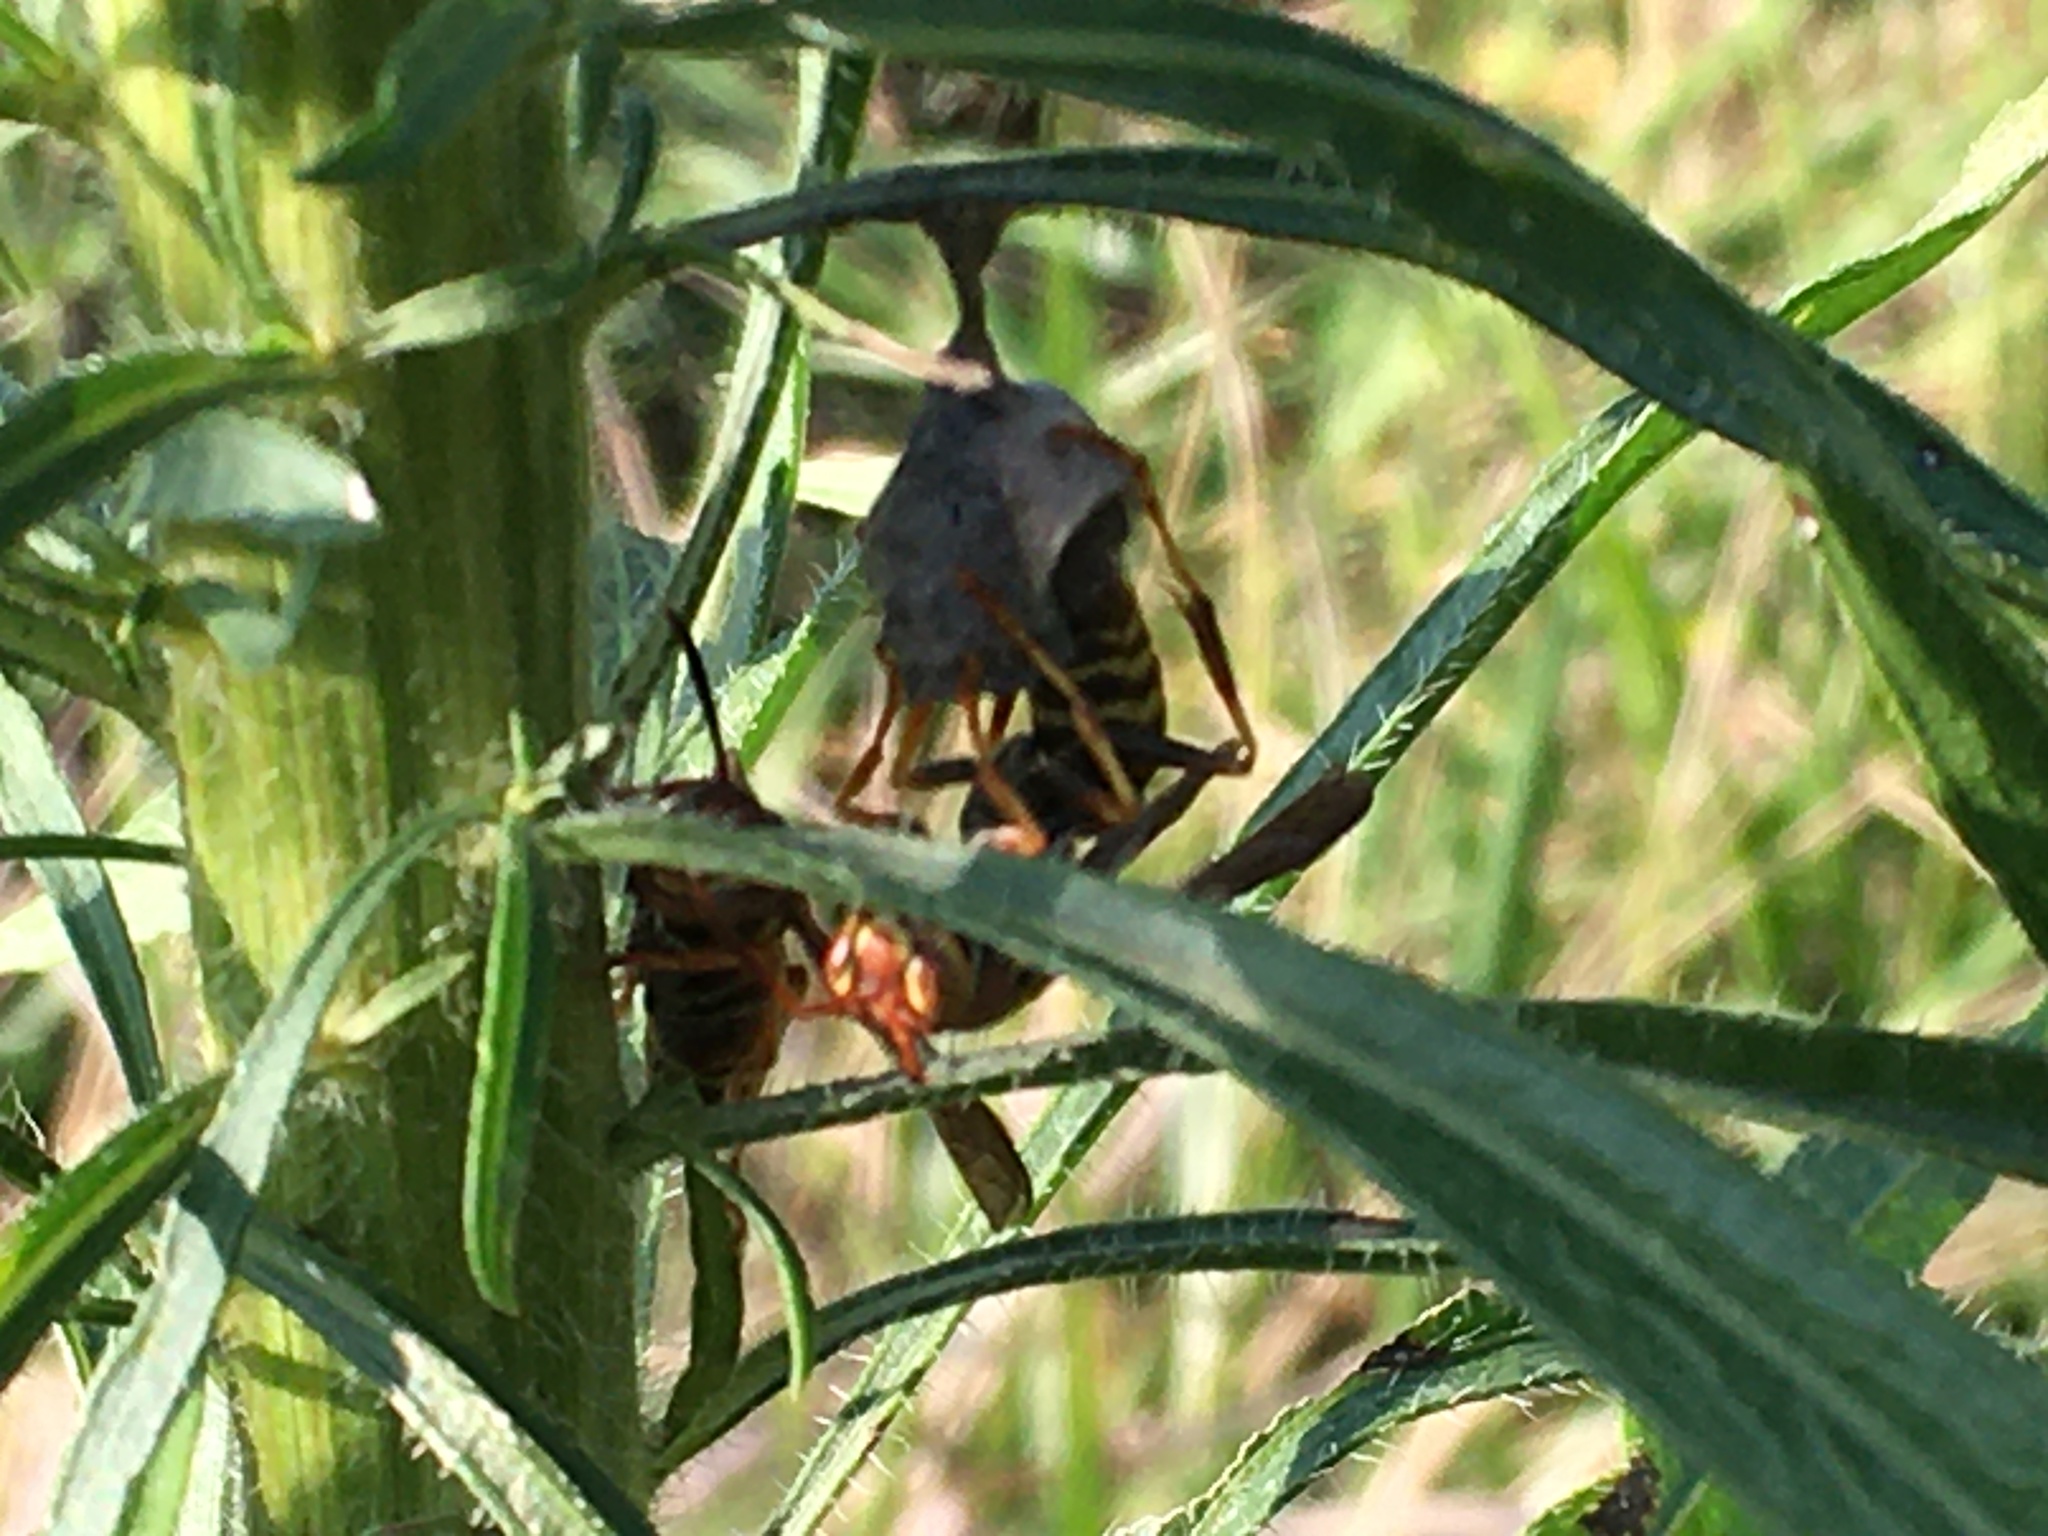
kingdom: Animalia
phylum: Arthropoda
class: Insecta
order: Hymenoptera
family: Eumenidae
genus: Polistes
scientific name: Polistes dorsalis
